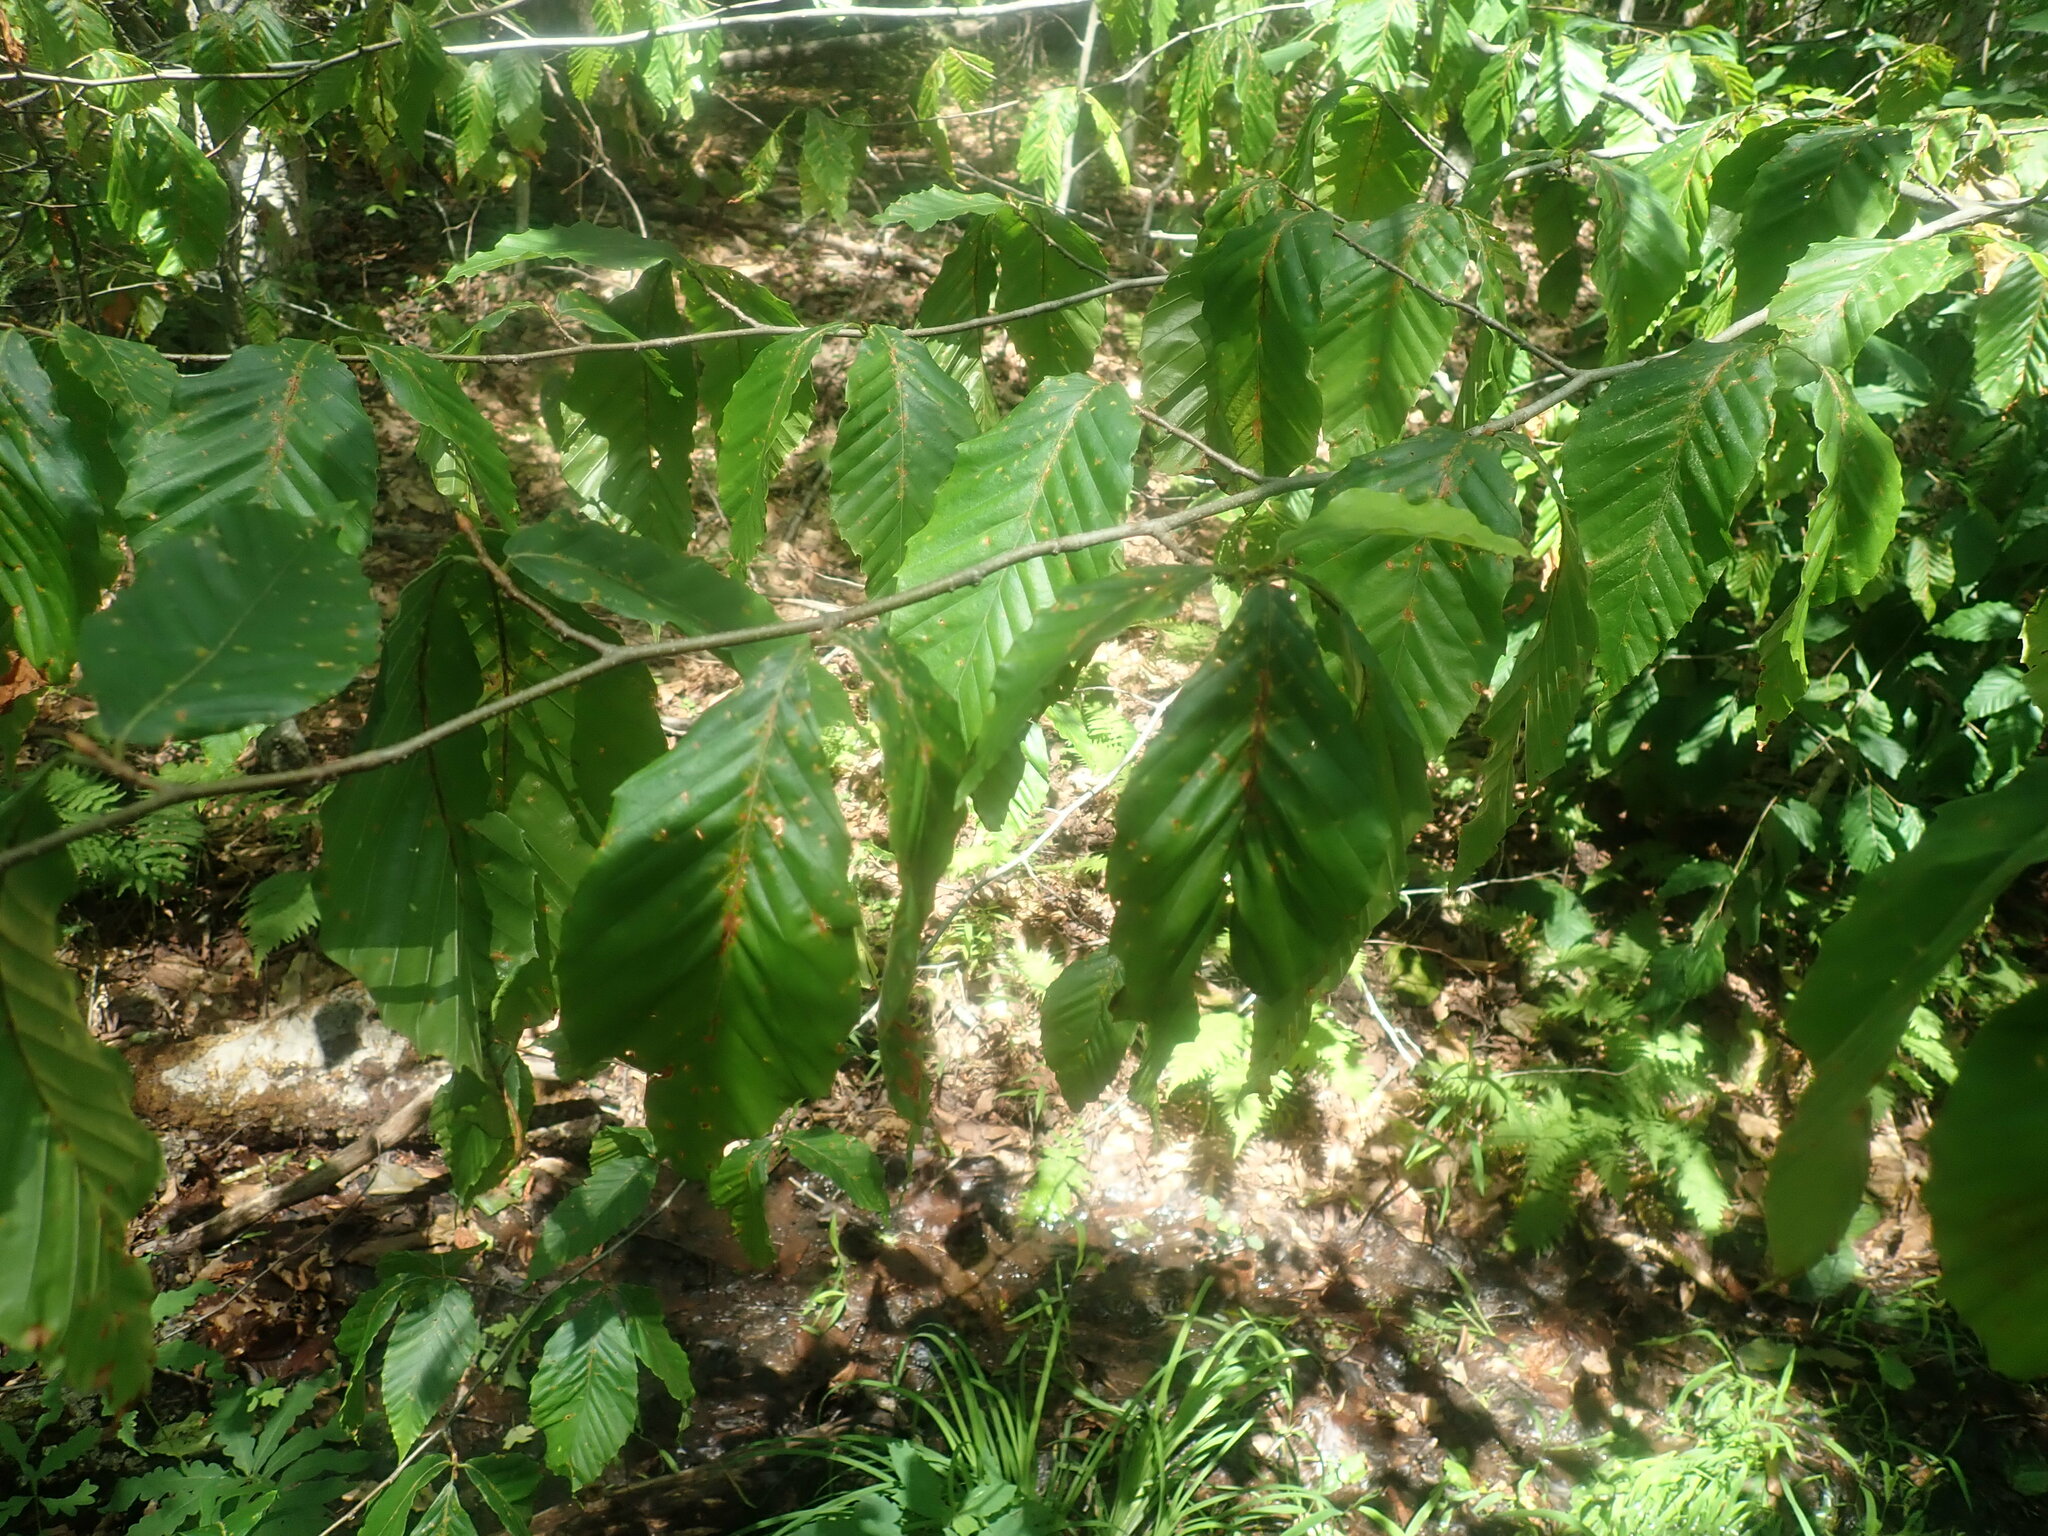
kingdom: Plantae
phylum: Tracheophyta
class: Magnoliopsida
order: Fagales
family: Fagaceae
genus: Fagus
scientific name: Fagus grandifolia
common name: American beech
